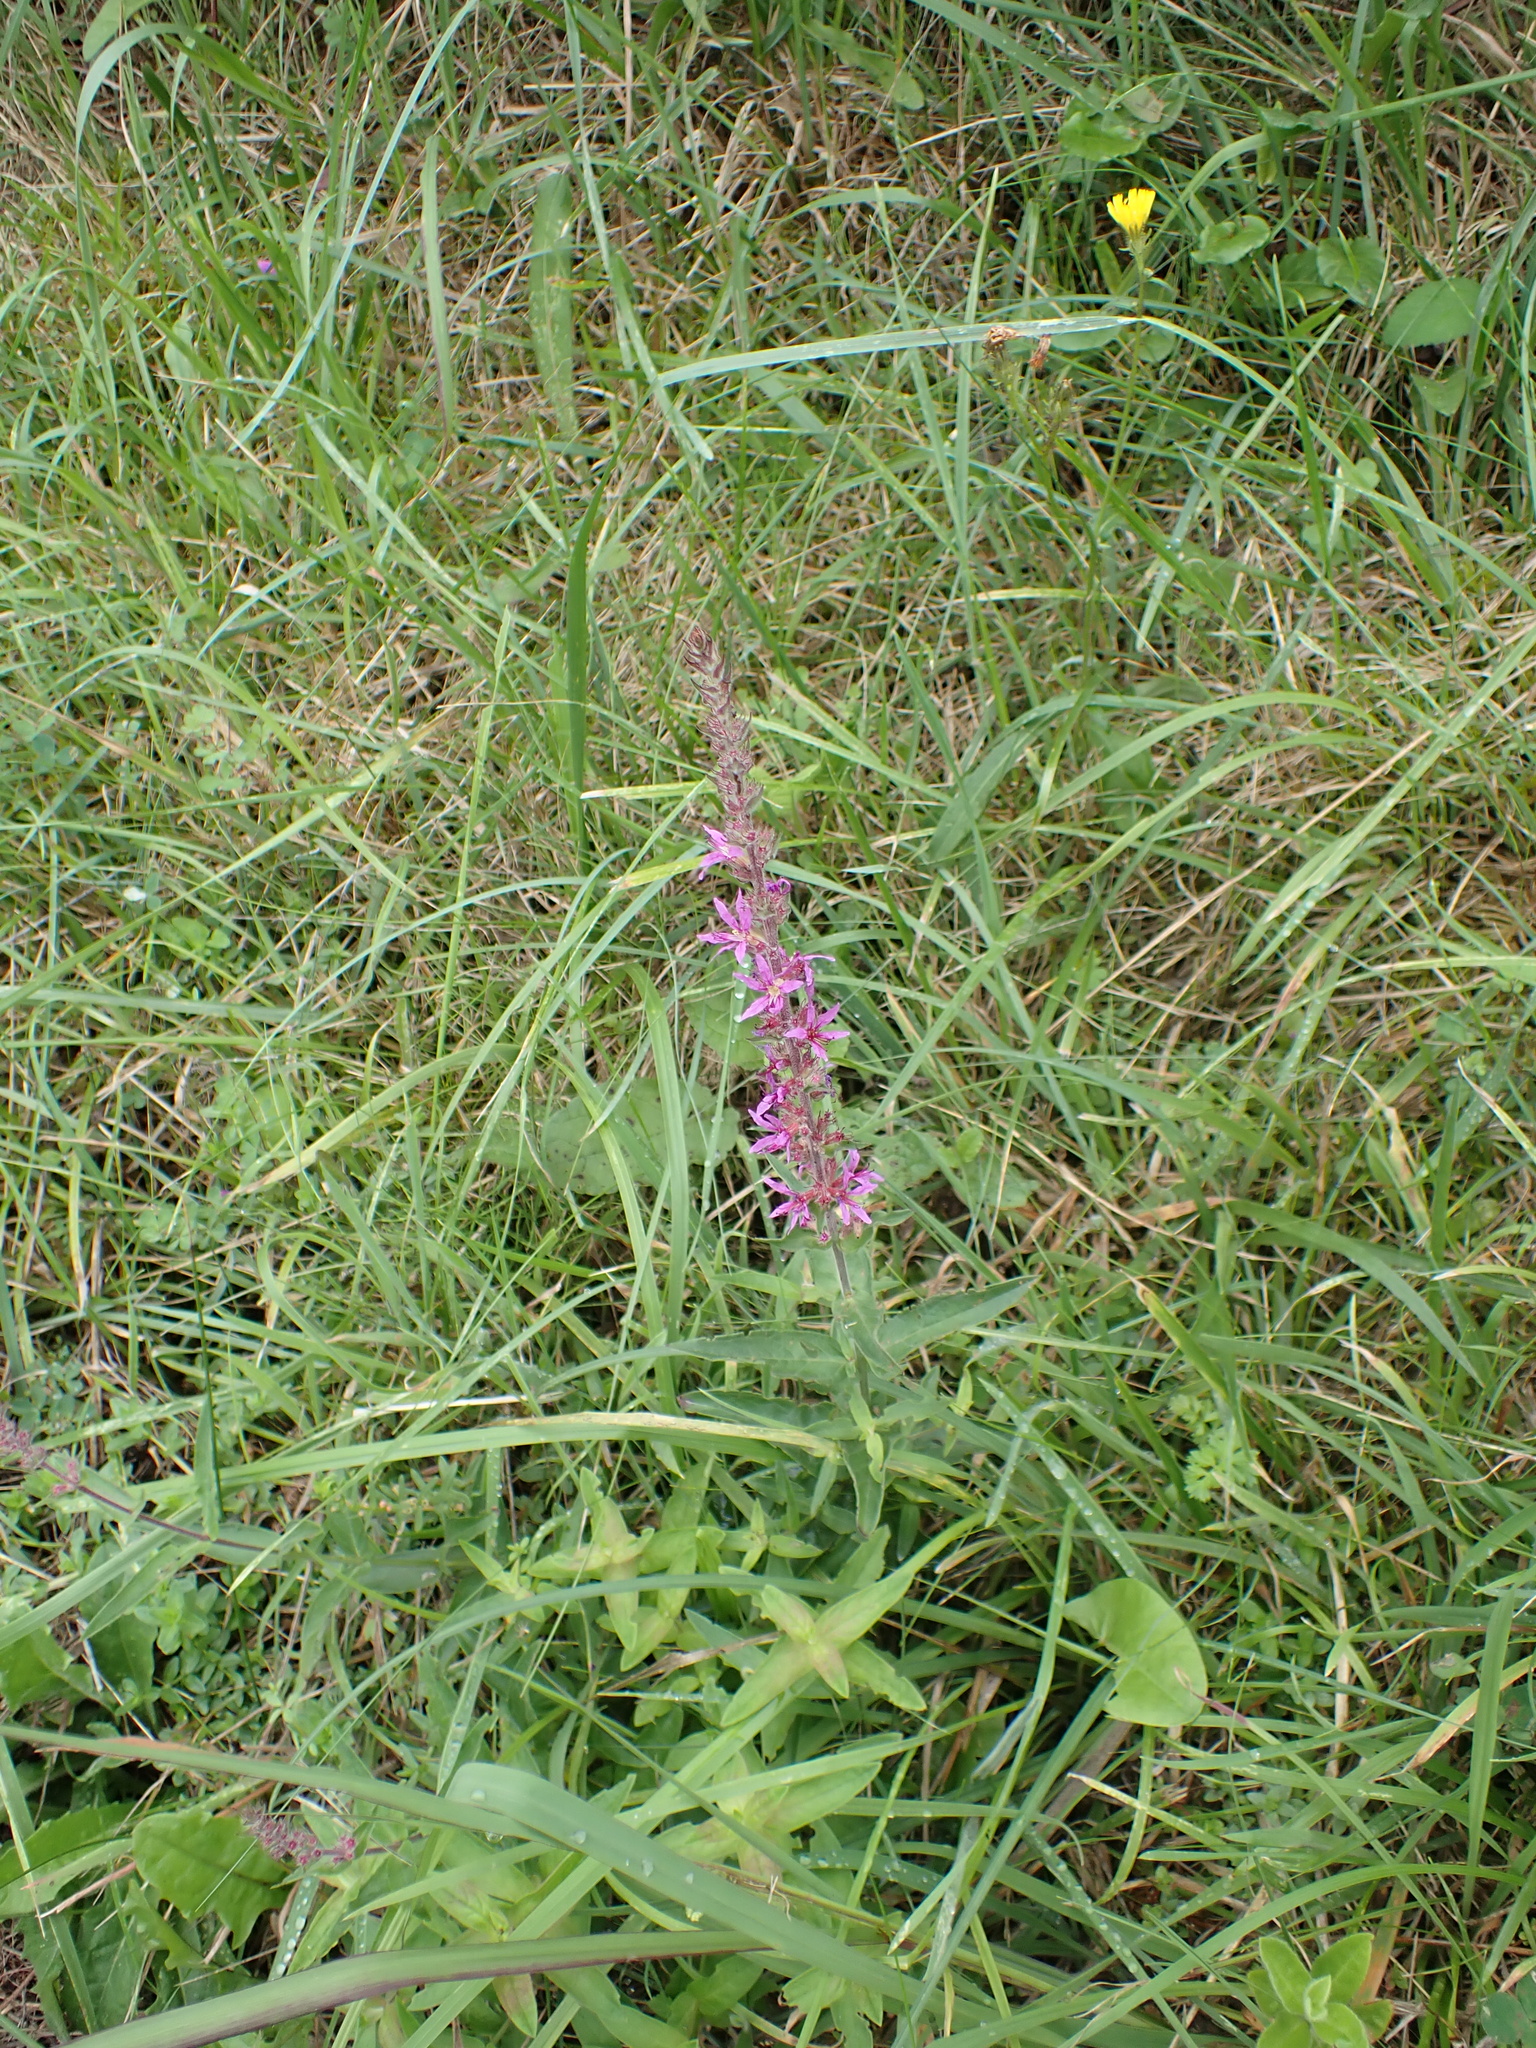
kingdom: Plantae
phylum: Tracheophyta
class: Magnoliopsida
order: Myrtales
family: Lythraceae
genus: Lythrum
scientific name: Lythrum salicaria
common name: Purple loosestrife
